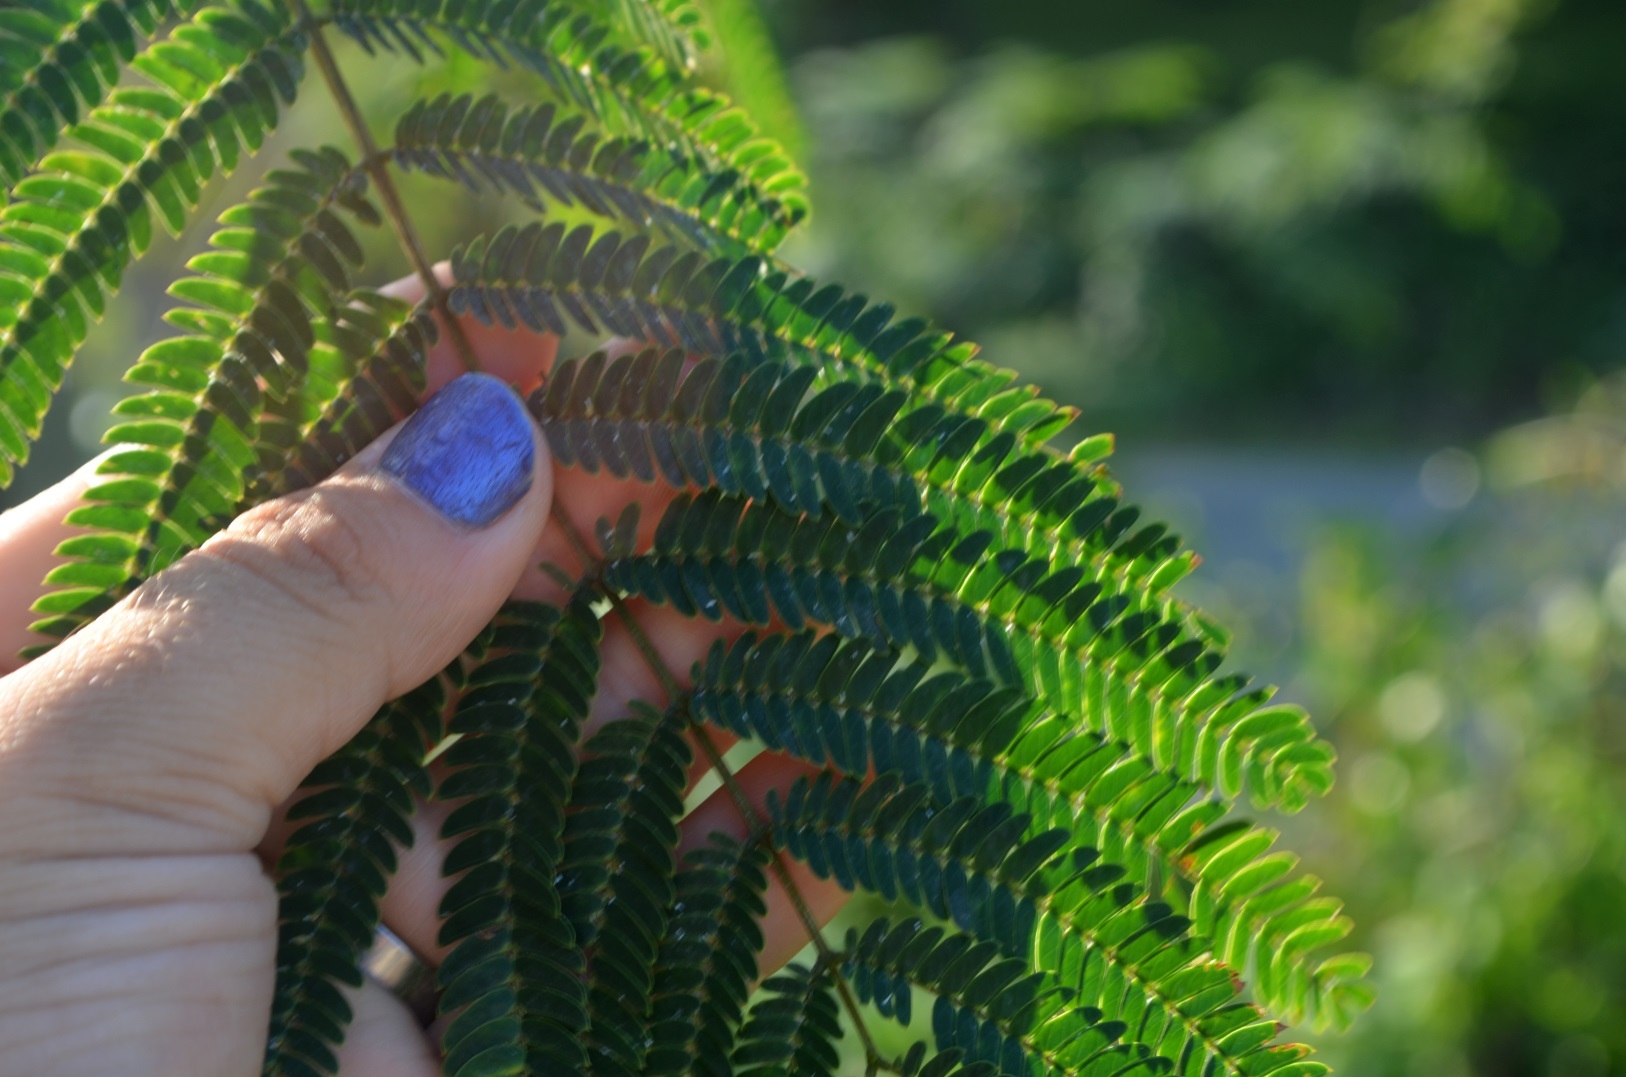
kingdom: Plantae
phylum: Tracheophyta
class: Magnoliopsida
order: Fabales
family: Fabaceae
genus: Albizia
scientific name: Albizia julibrissin
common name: Silktree
